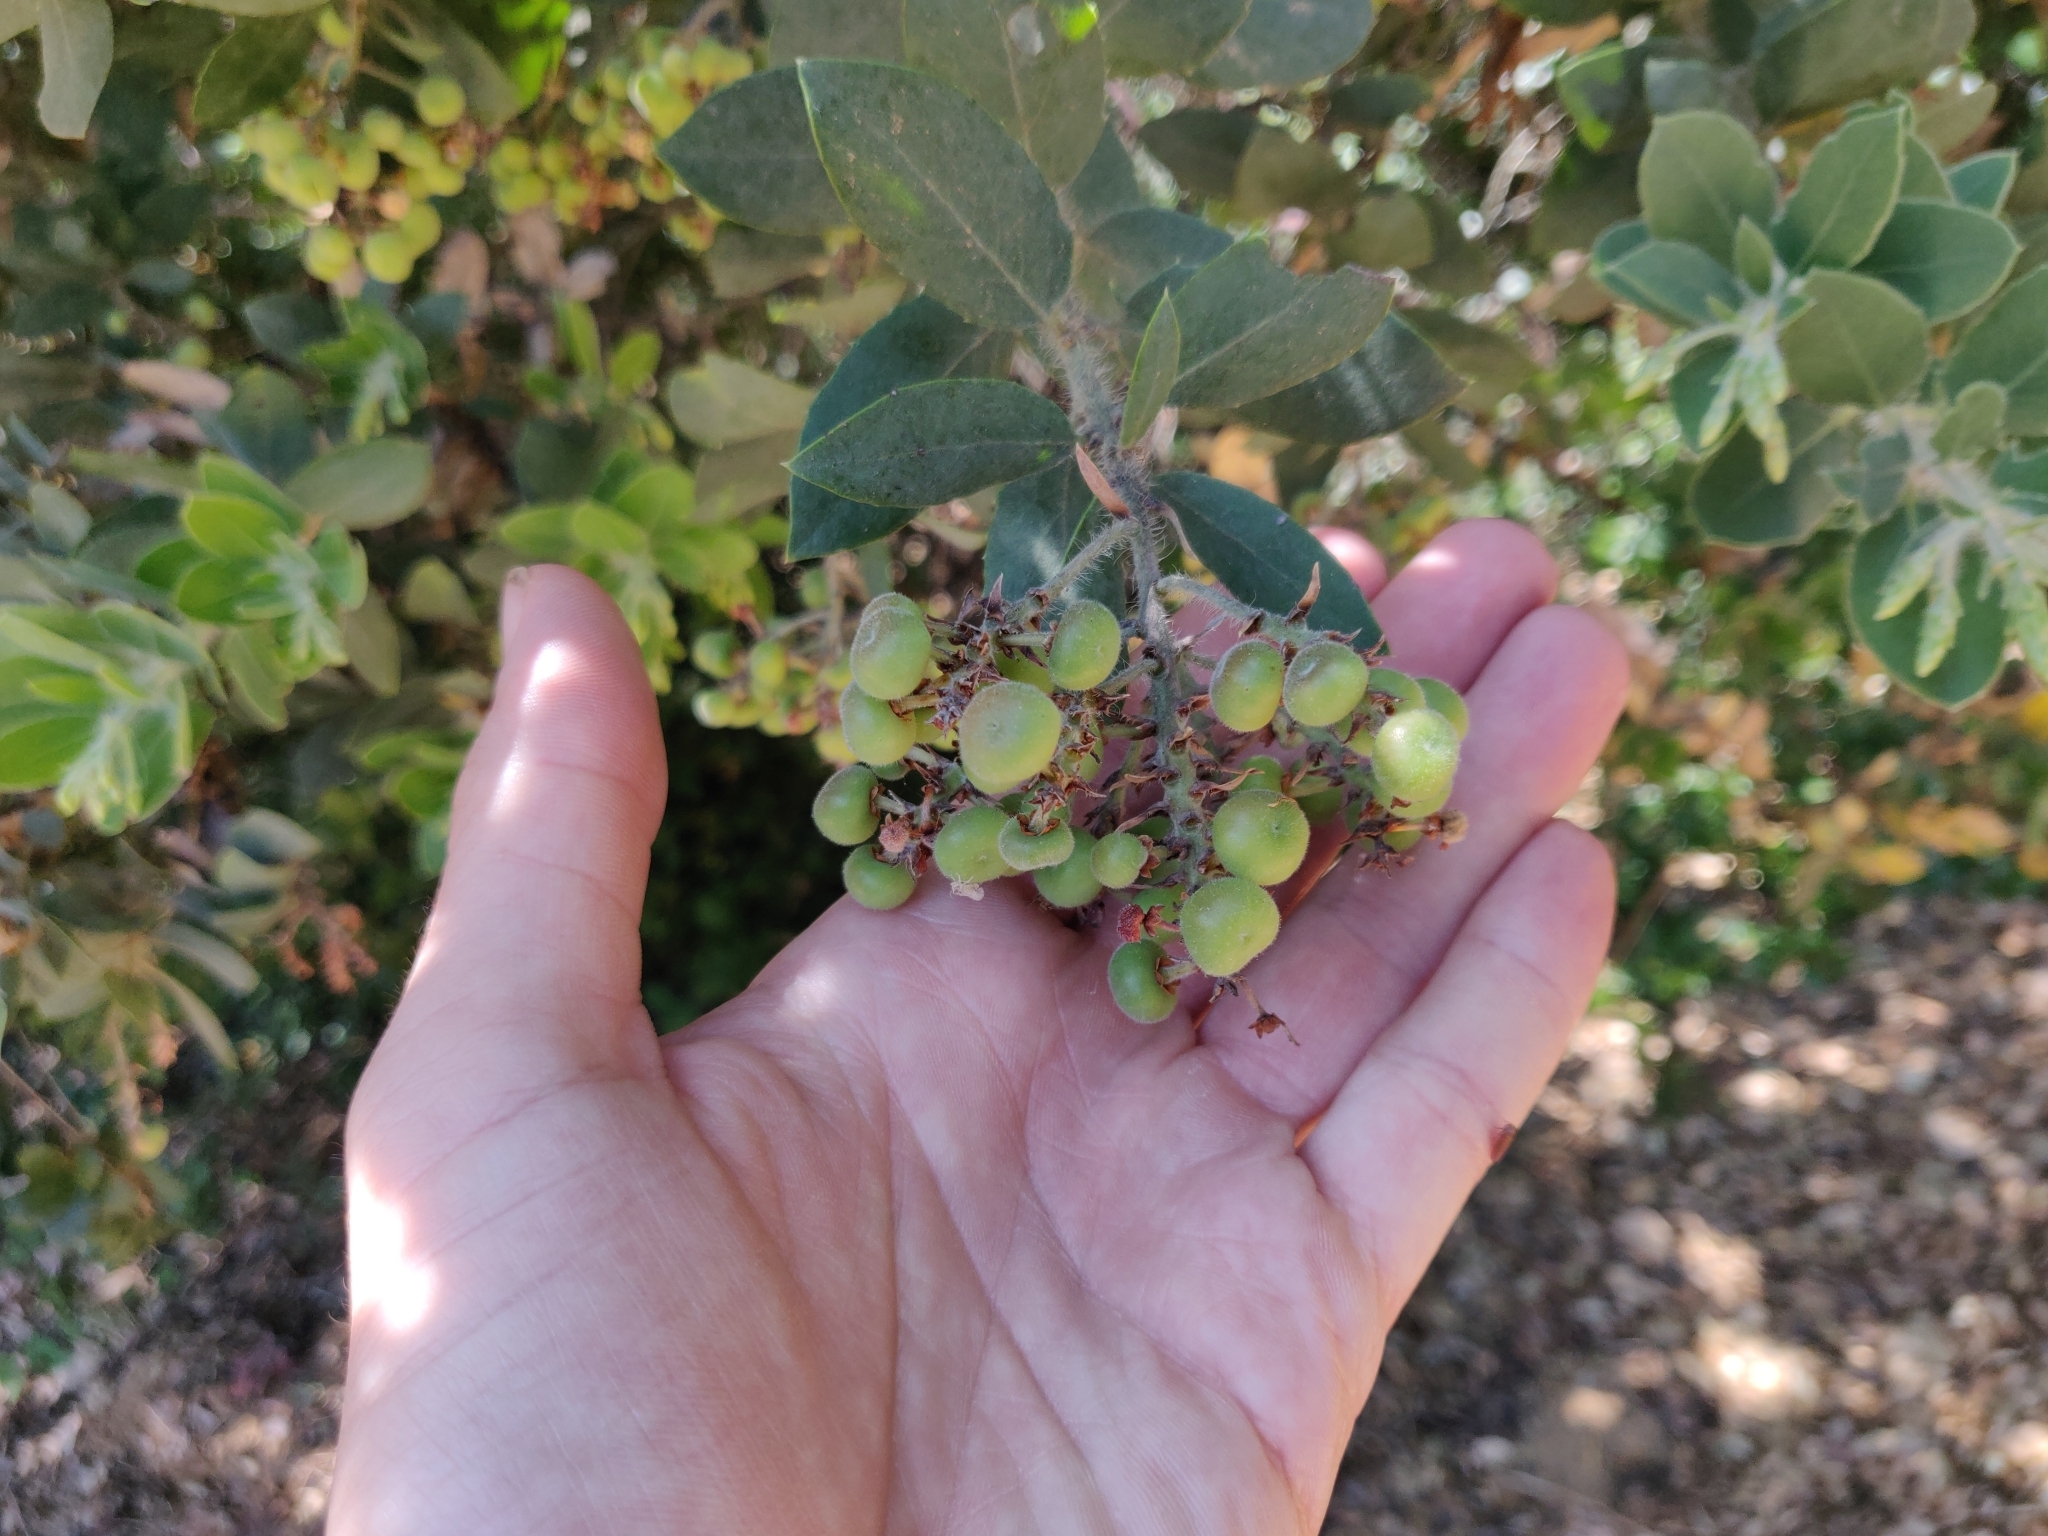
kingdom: Plantae
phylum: Tracheophyta
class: Magnoliopsida
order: Ericales
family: Ericaceae
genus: Arctostaphylos
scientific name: Arctostaphylos crustacea
